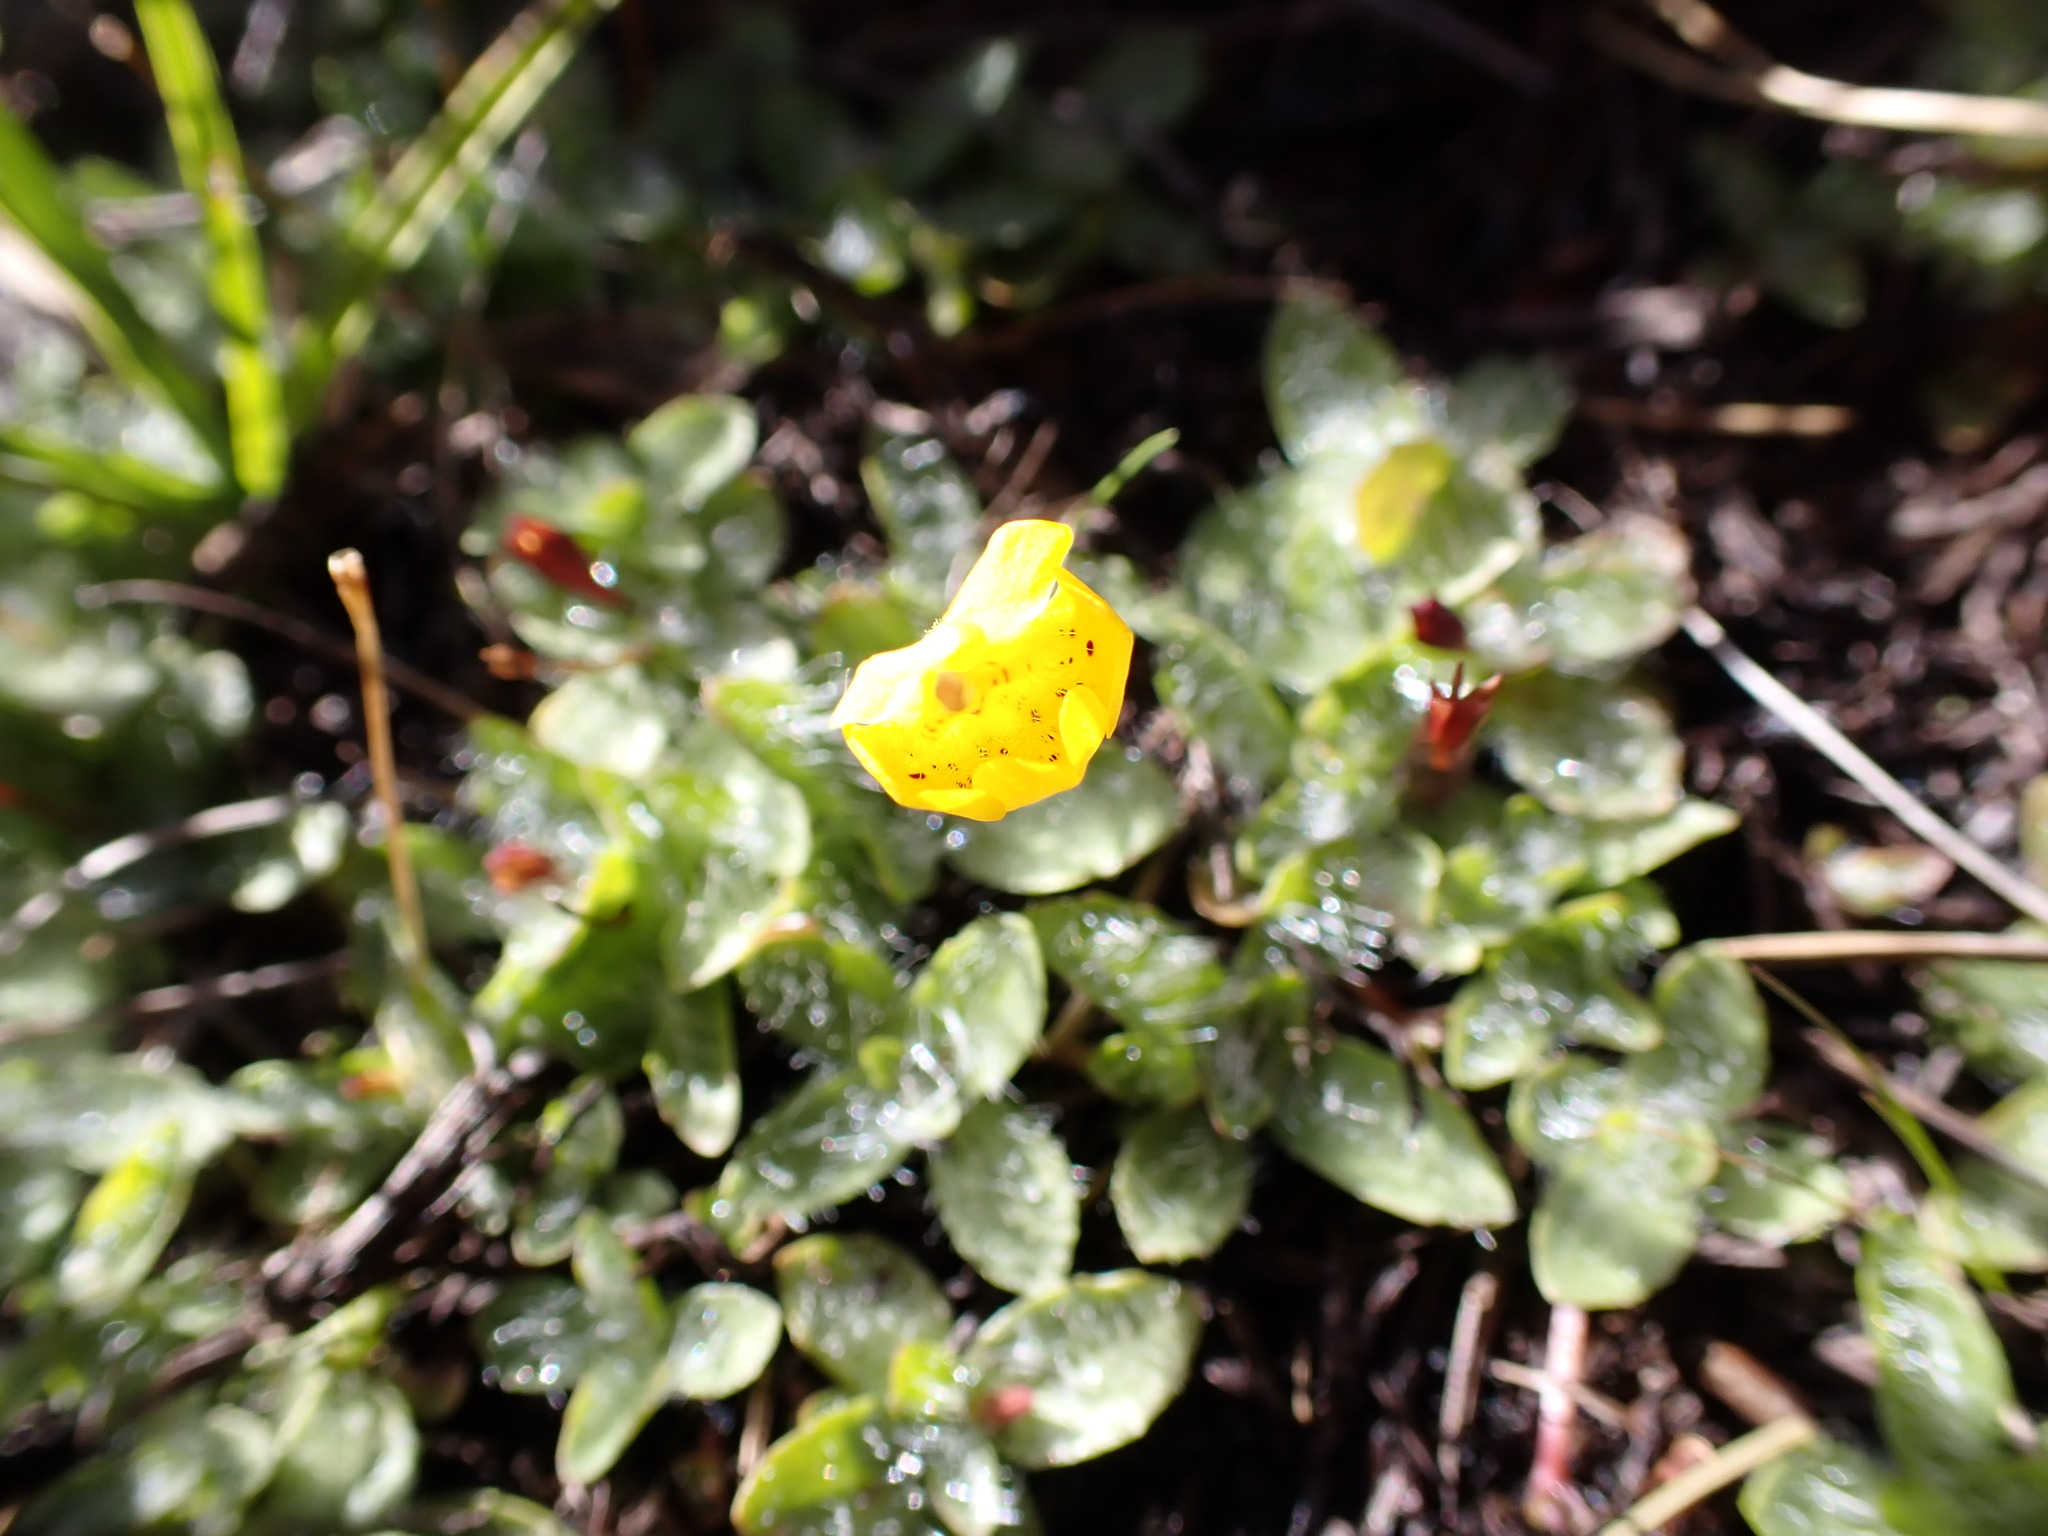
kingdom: Plantae
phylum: Tracheophyta
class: Magnoliopsida
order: Lamiales
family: Phrymaceae
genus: Erythranthe
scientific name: Erythranthe primuloides
